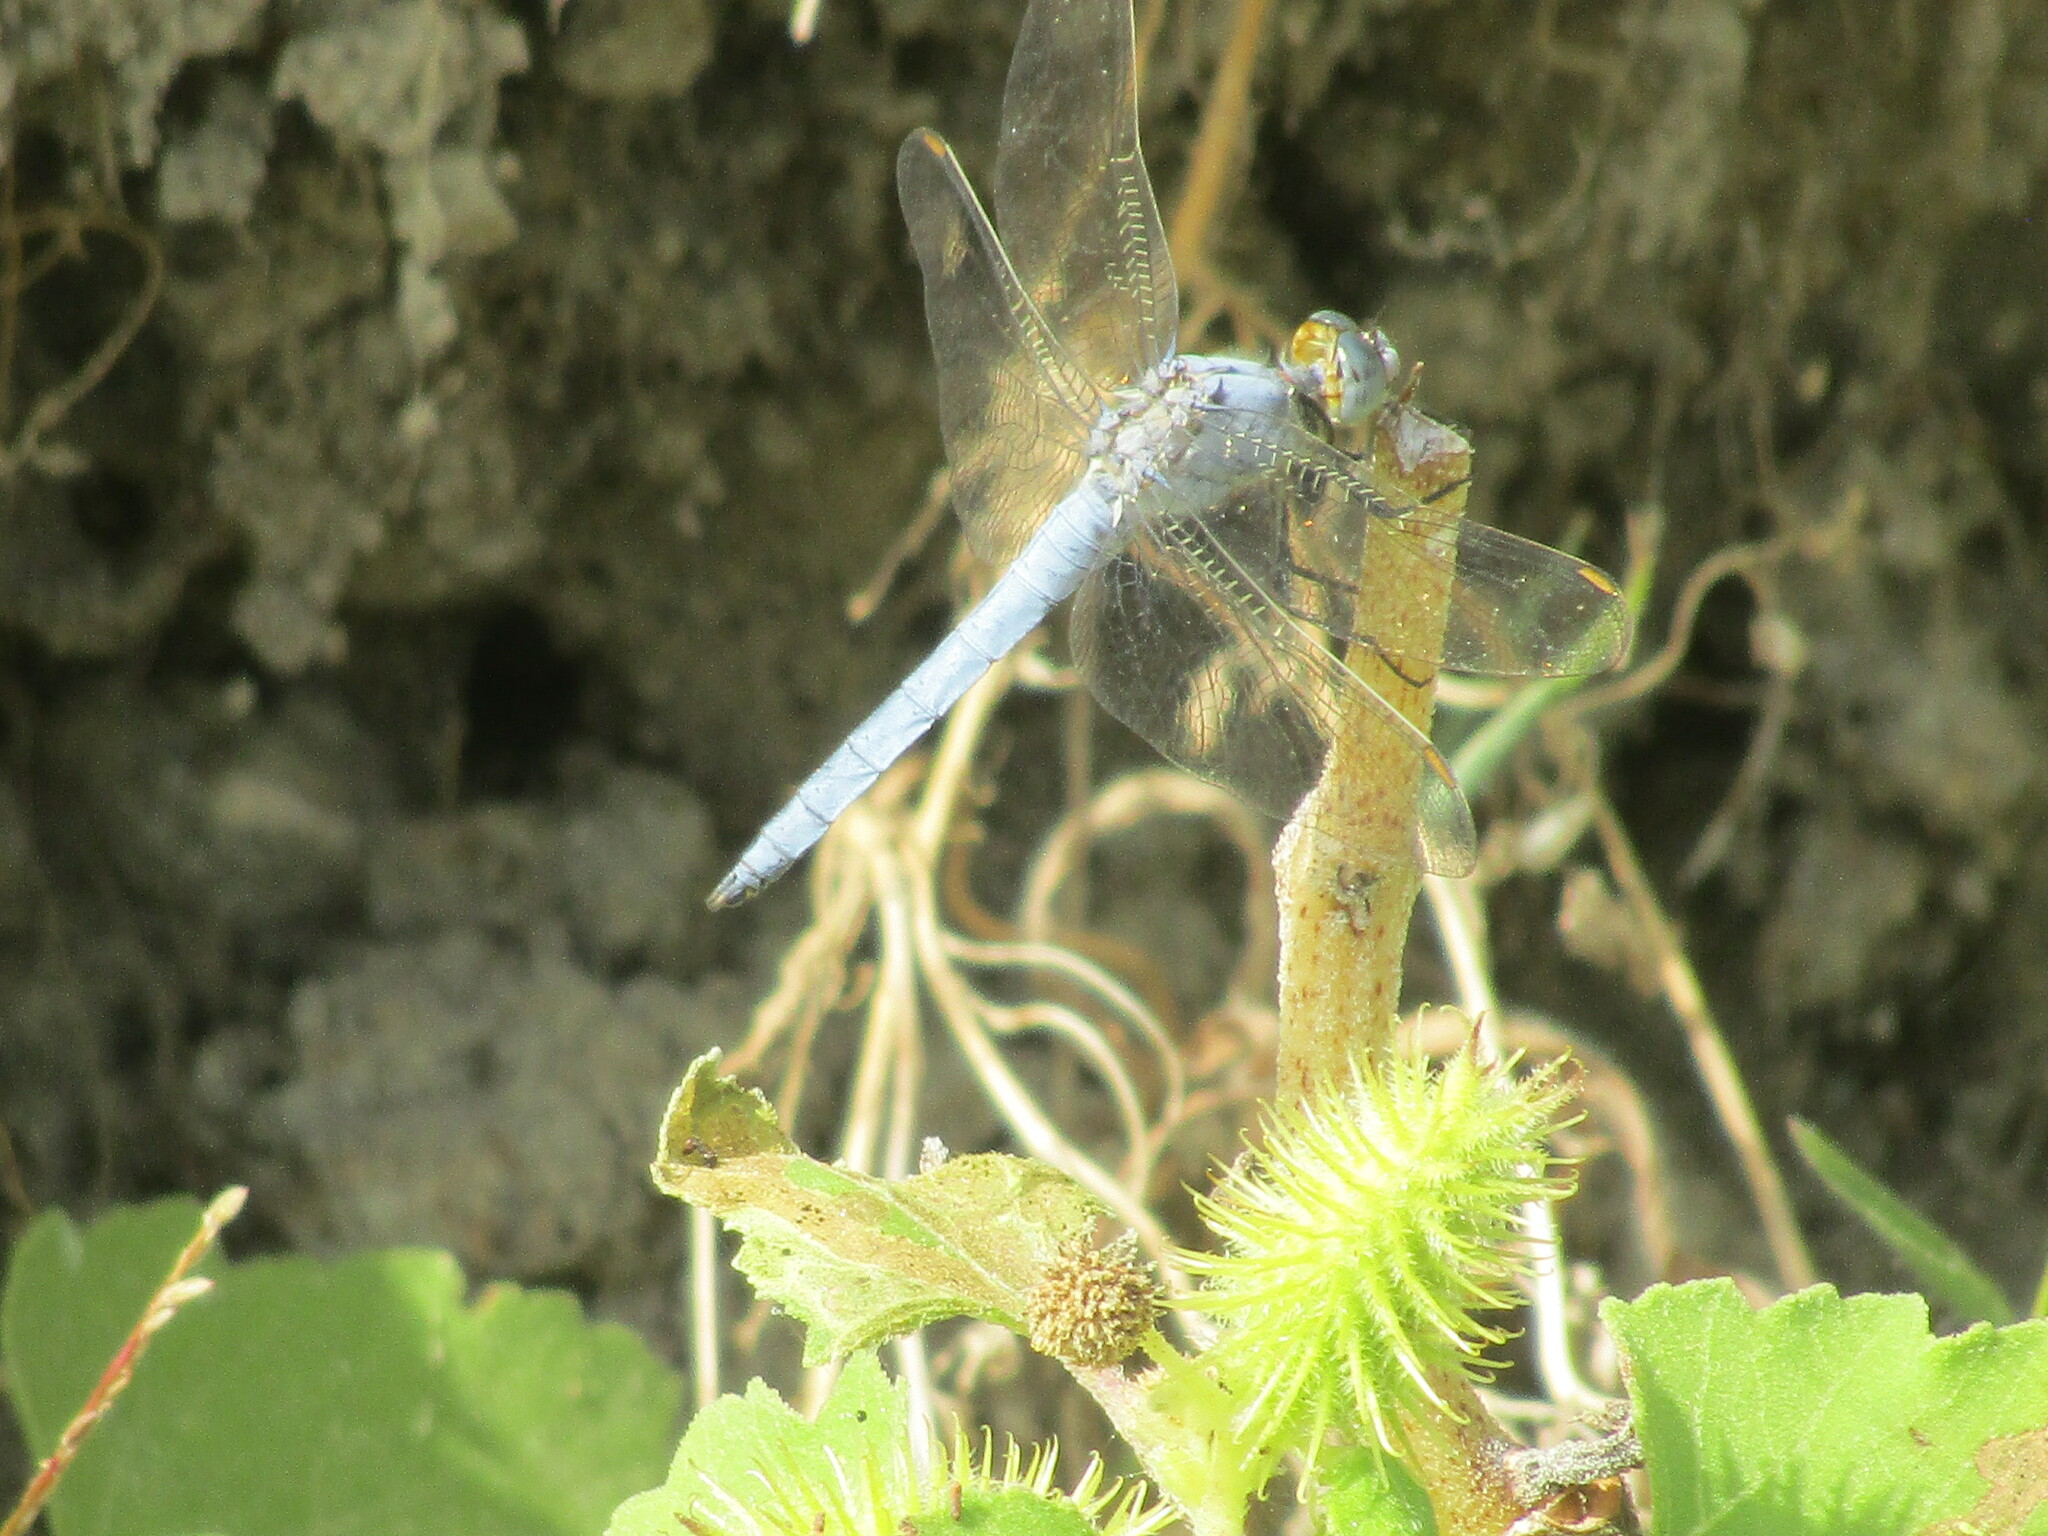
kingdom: Animalia
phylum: Arthropoda
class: Insecta
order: Odonata
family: Libellulidae
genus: Orthetrum
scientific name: Orthetrum brunneum
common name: Southern skimmer
